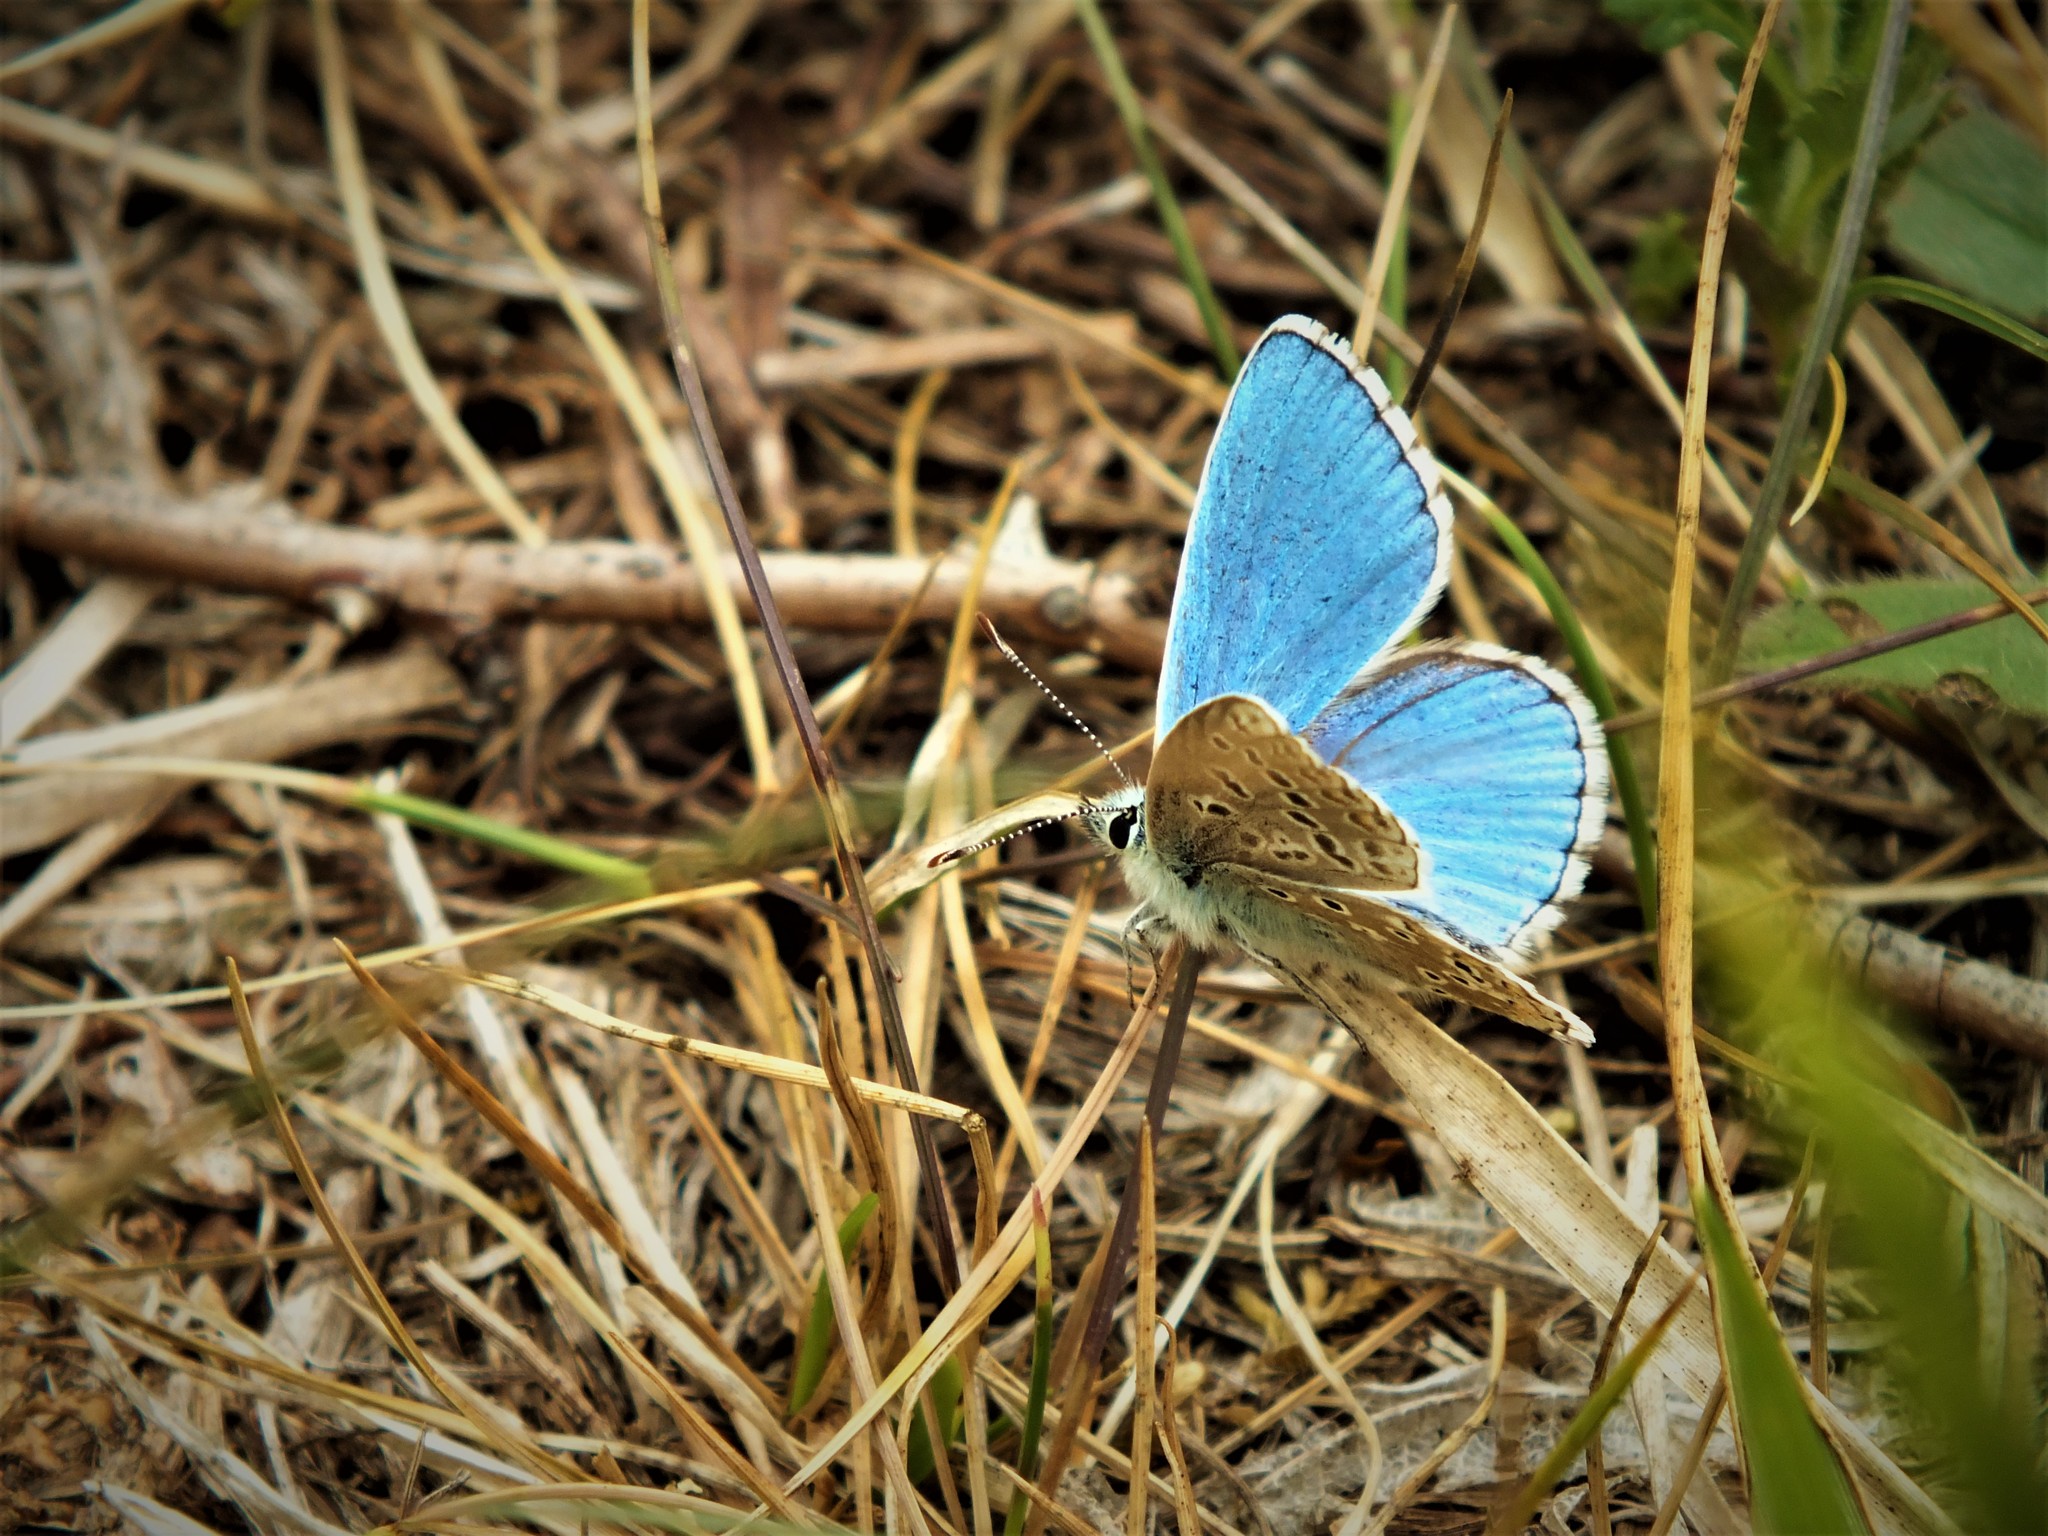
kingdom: Animalia
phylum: Arthropoda
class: Insecta
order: Lepidoptera
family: Lycaenidae
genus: Lysandra
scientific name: Lysandra bellargus
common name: Adonis blue
